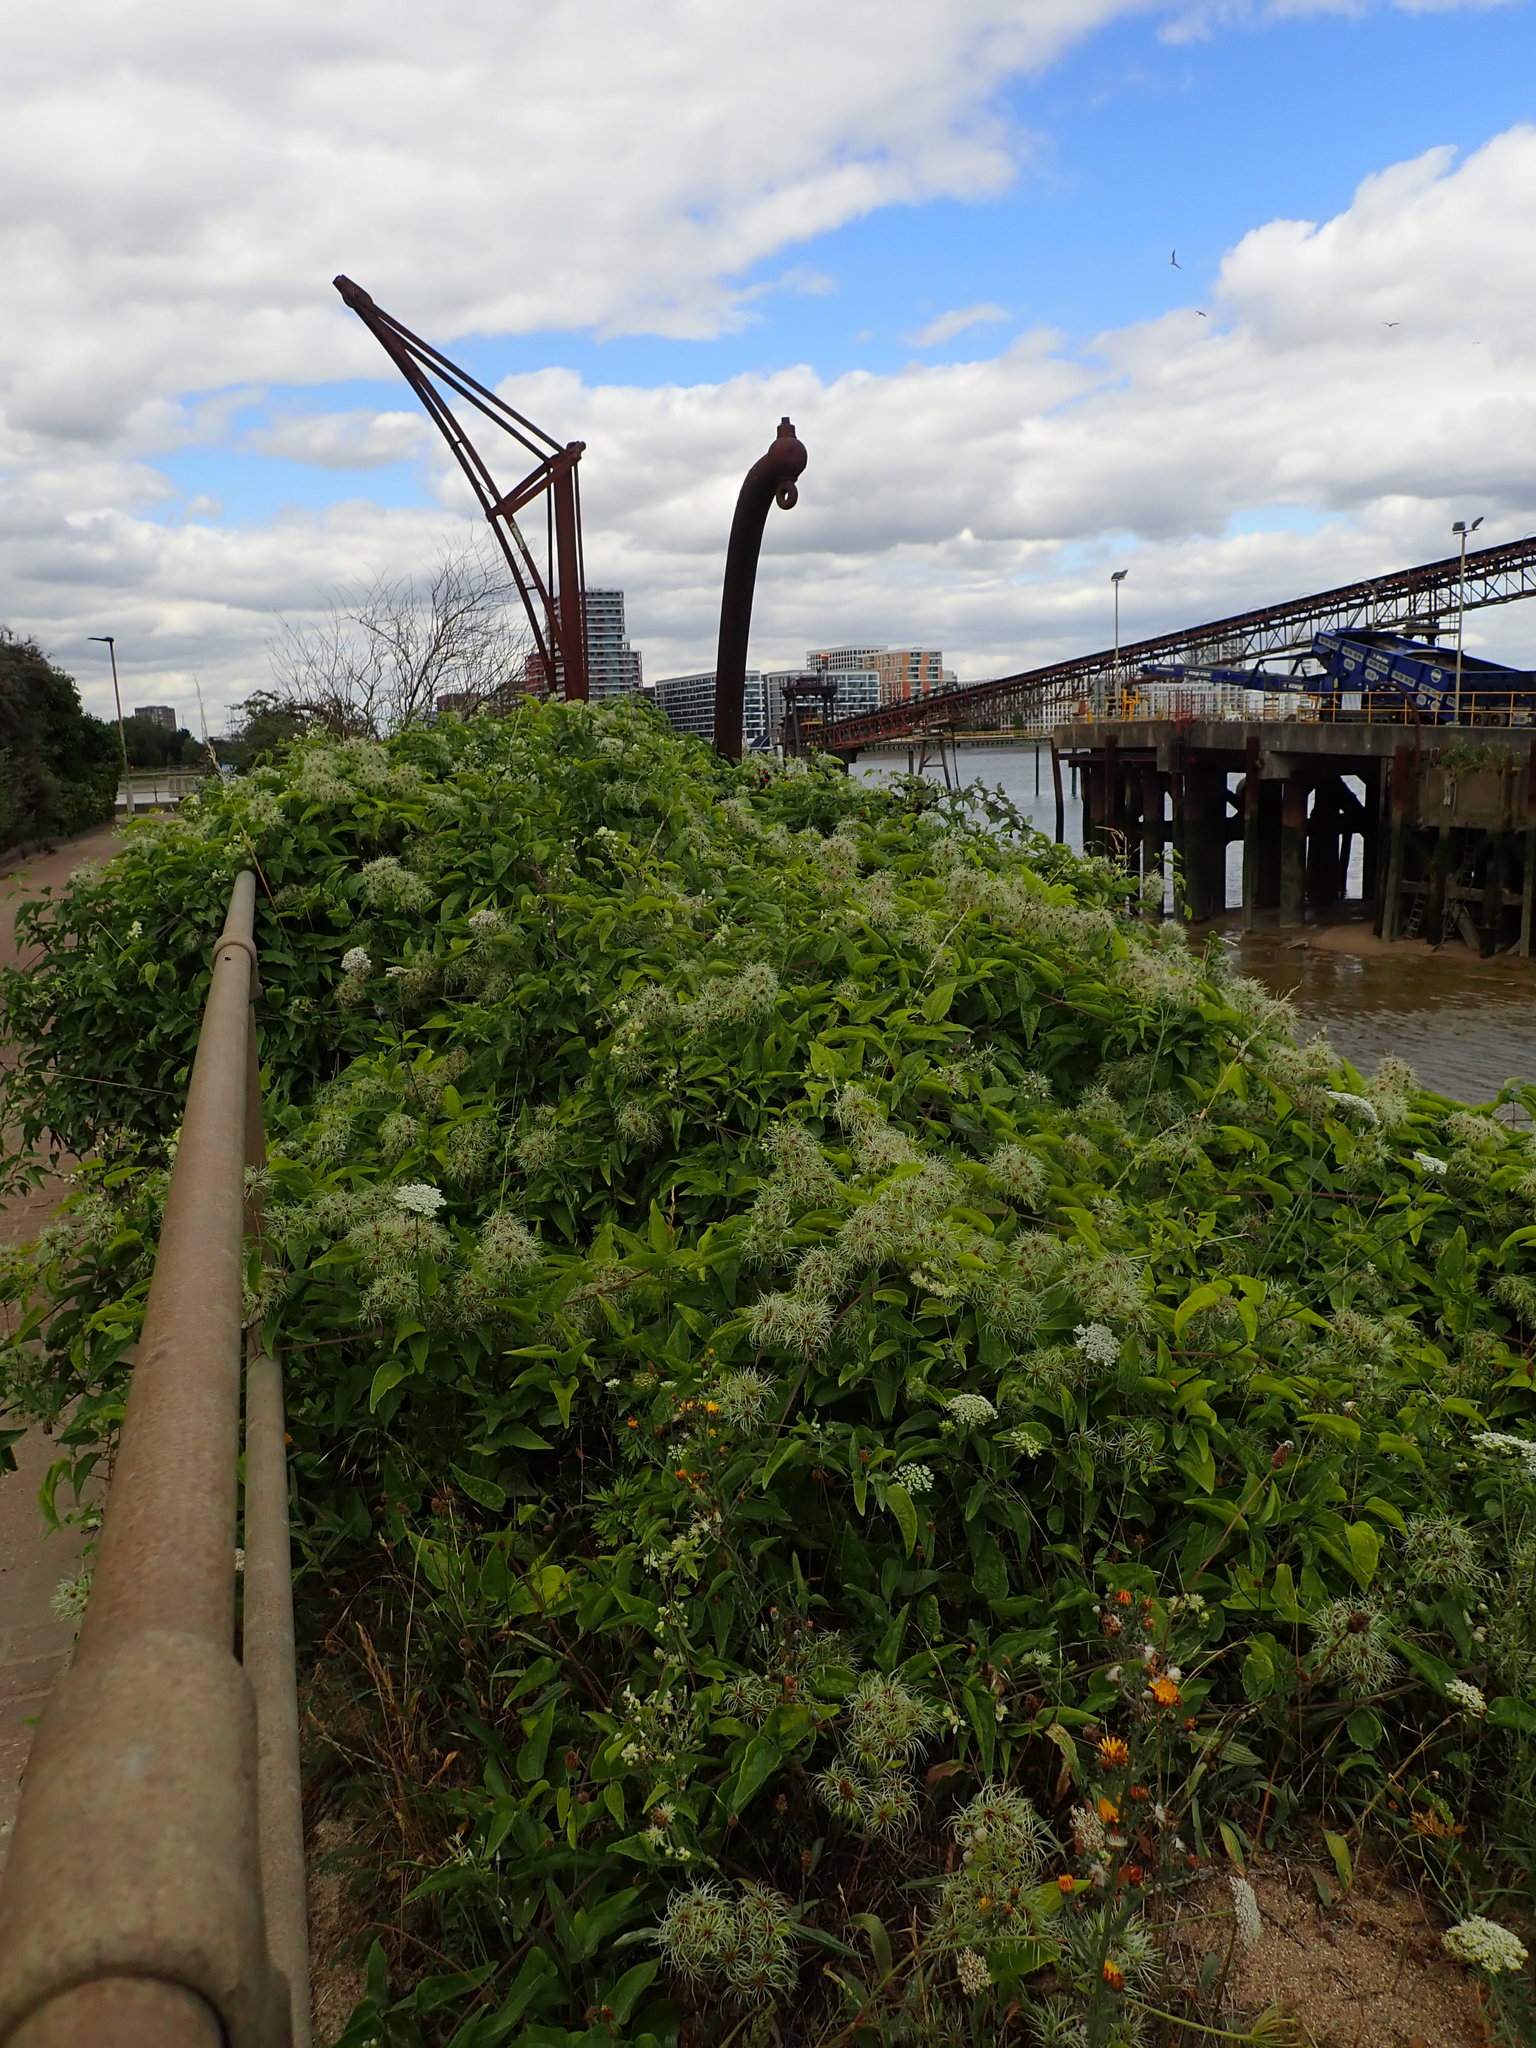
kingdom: Plantae
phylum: Tracheophyta
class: Magnoliopsida
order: Ranunculales
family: Ranunculaceae
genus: Clematis
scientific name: Clematis vitalba
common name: Evergreen clematis
